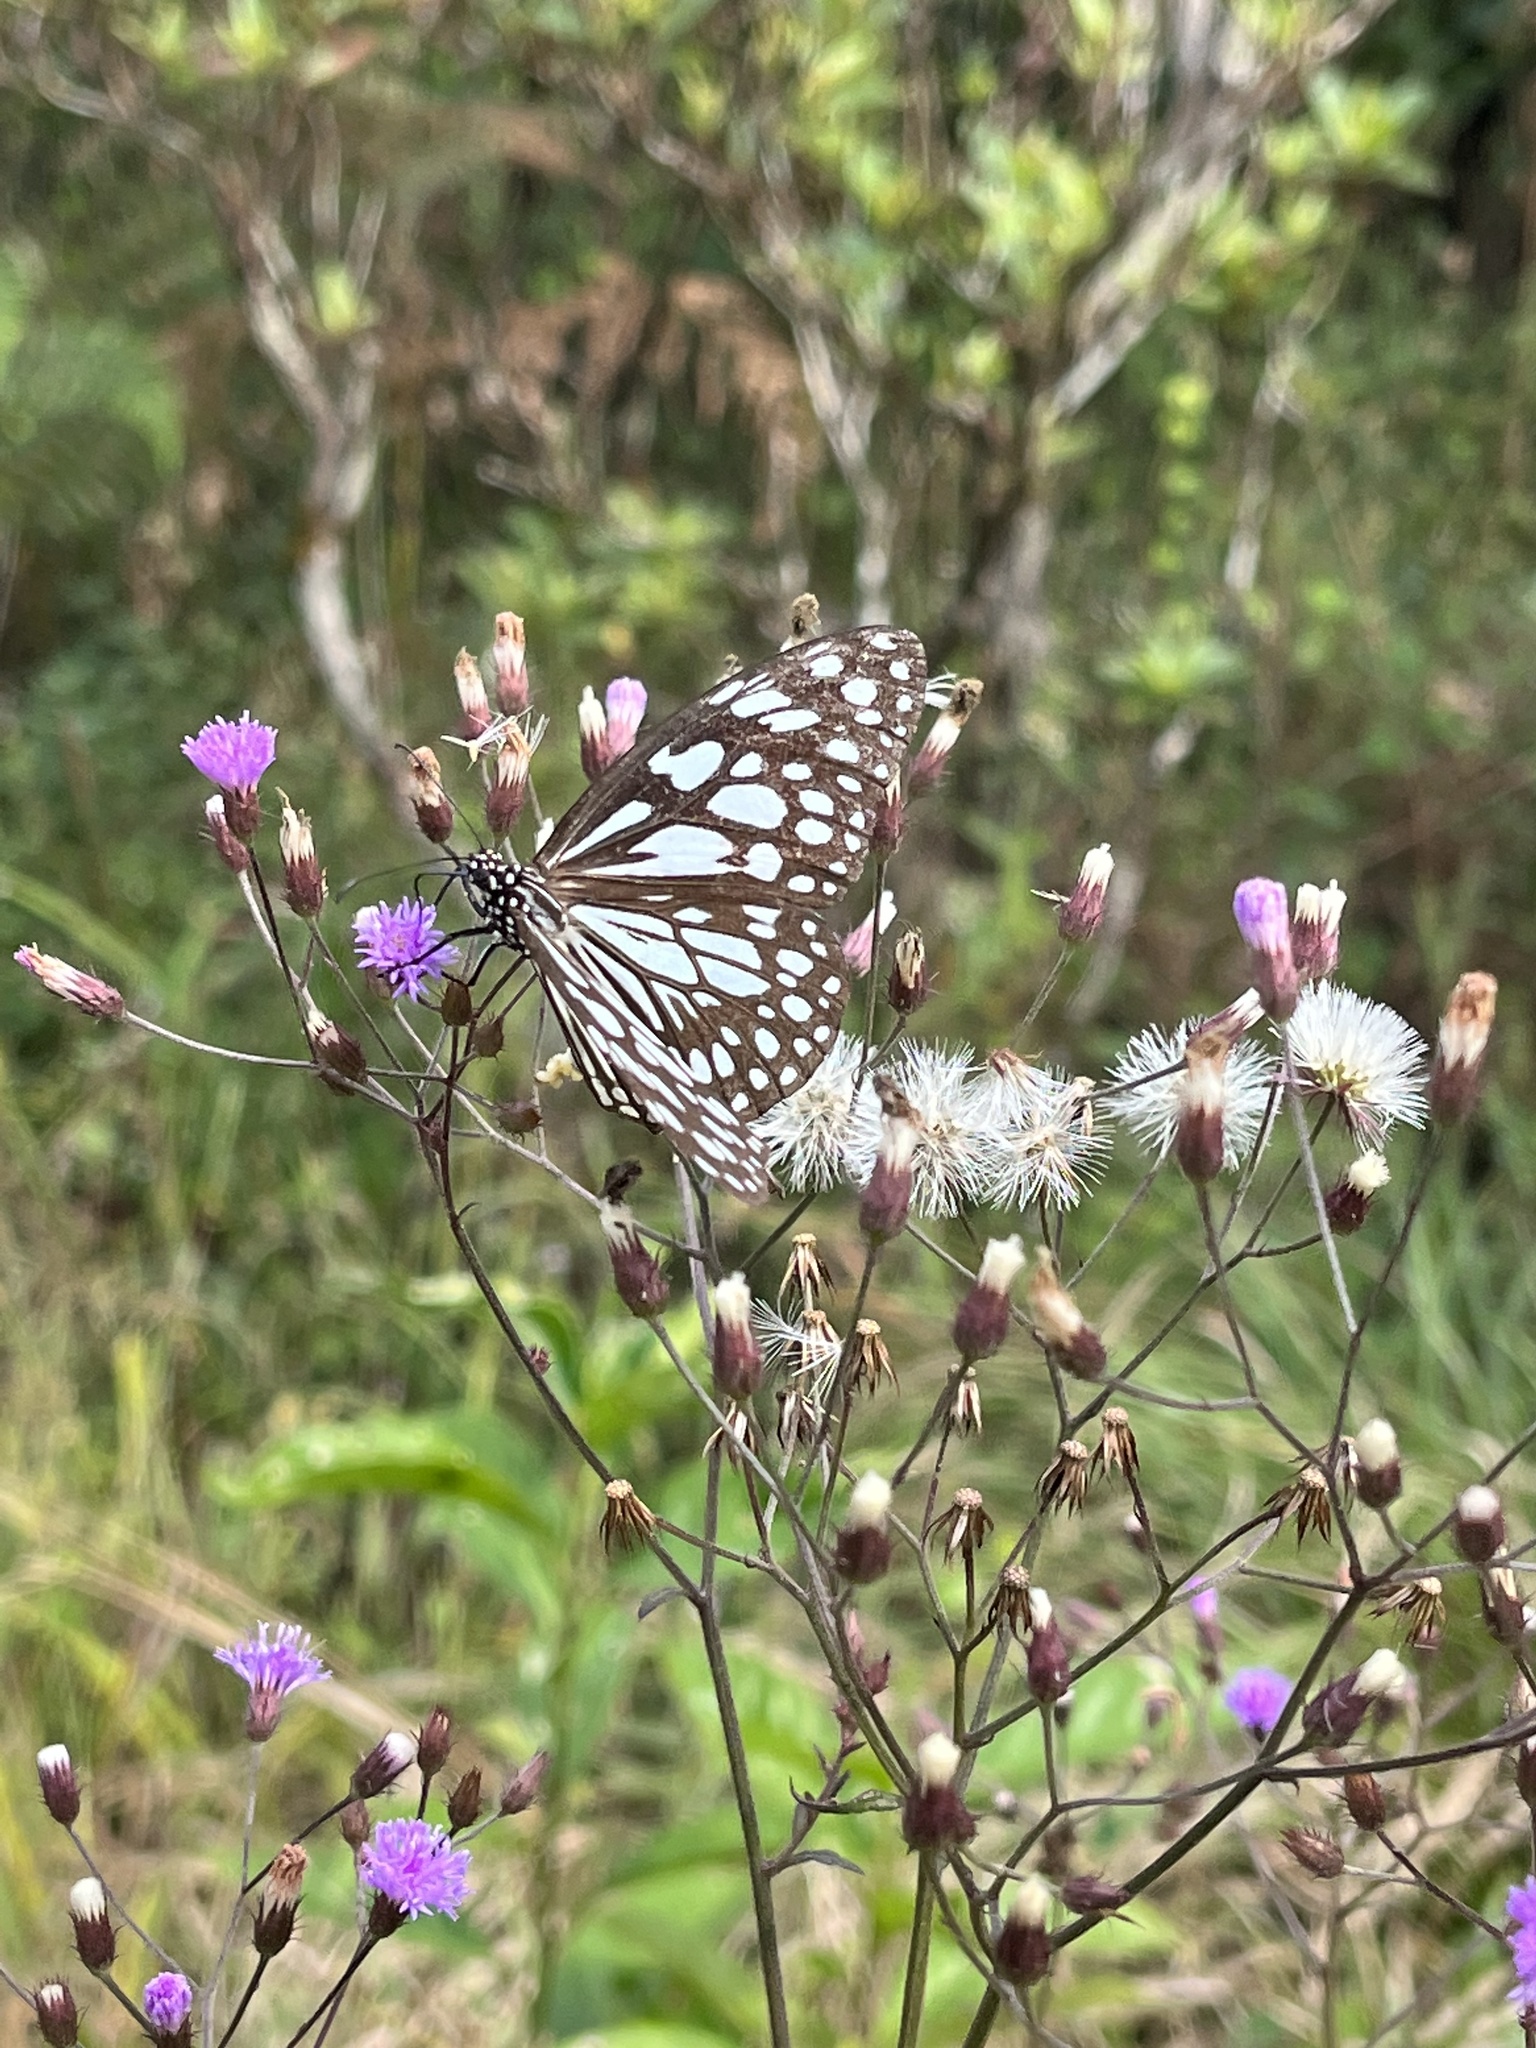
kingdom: Animalia
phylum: Arthropoda
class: Insecta
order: Lepidoptera
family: Nymphalidae
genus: Tirumala
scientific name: Tirumala limniace
